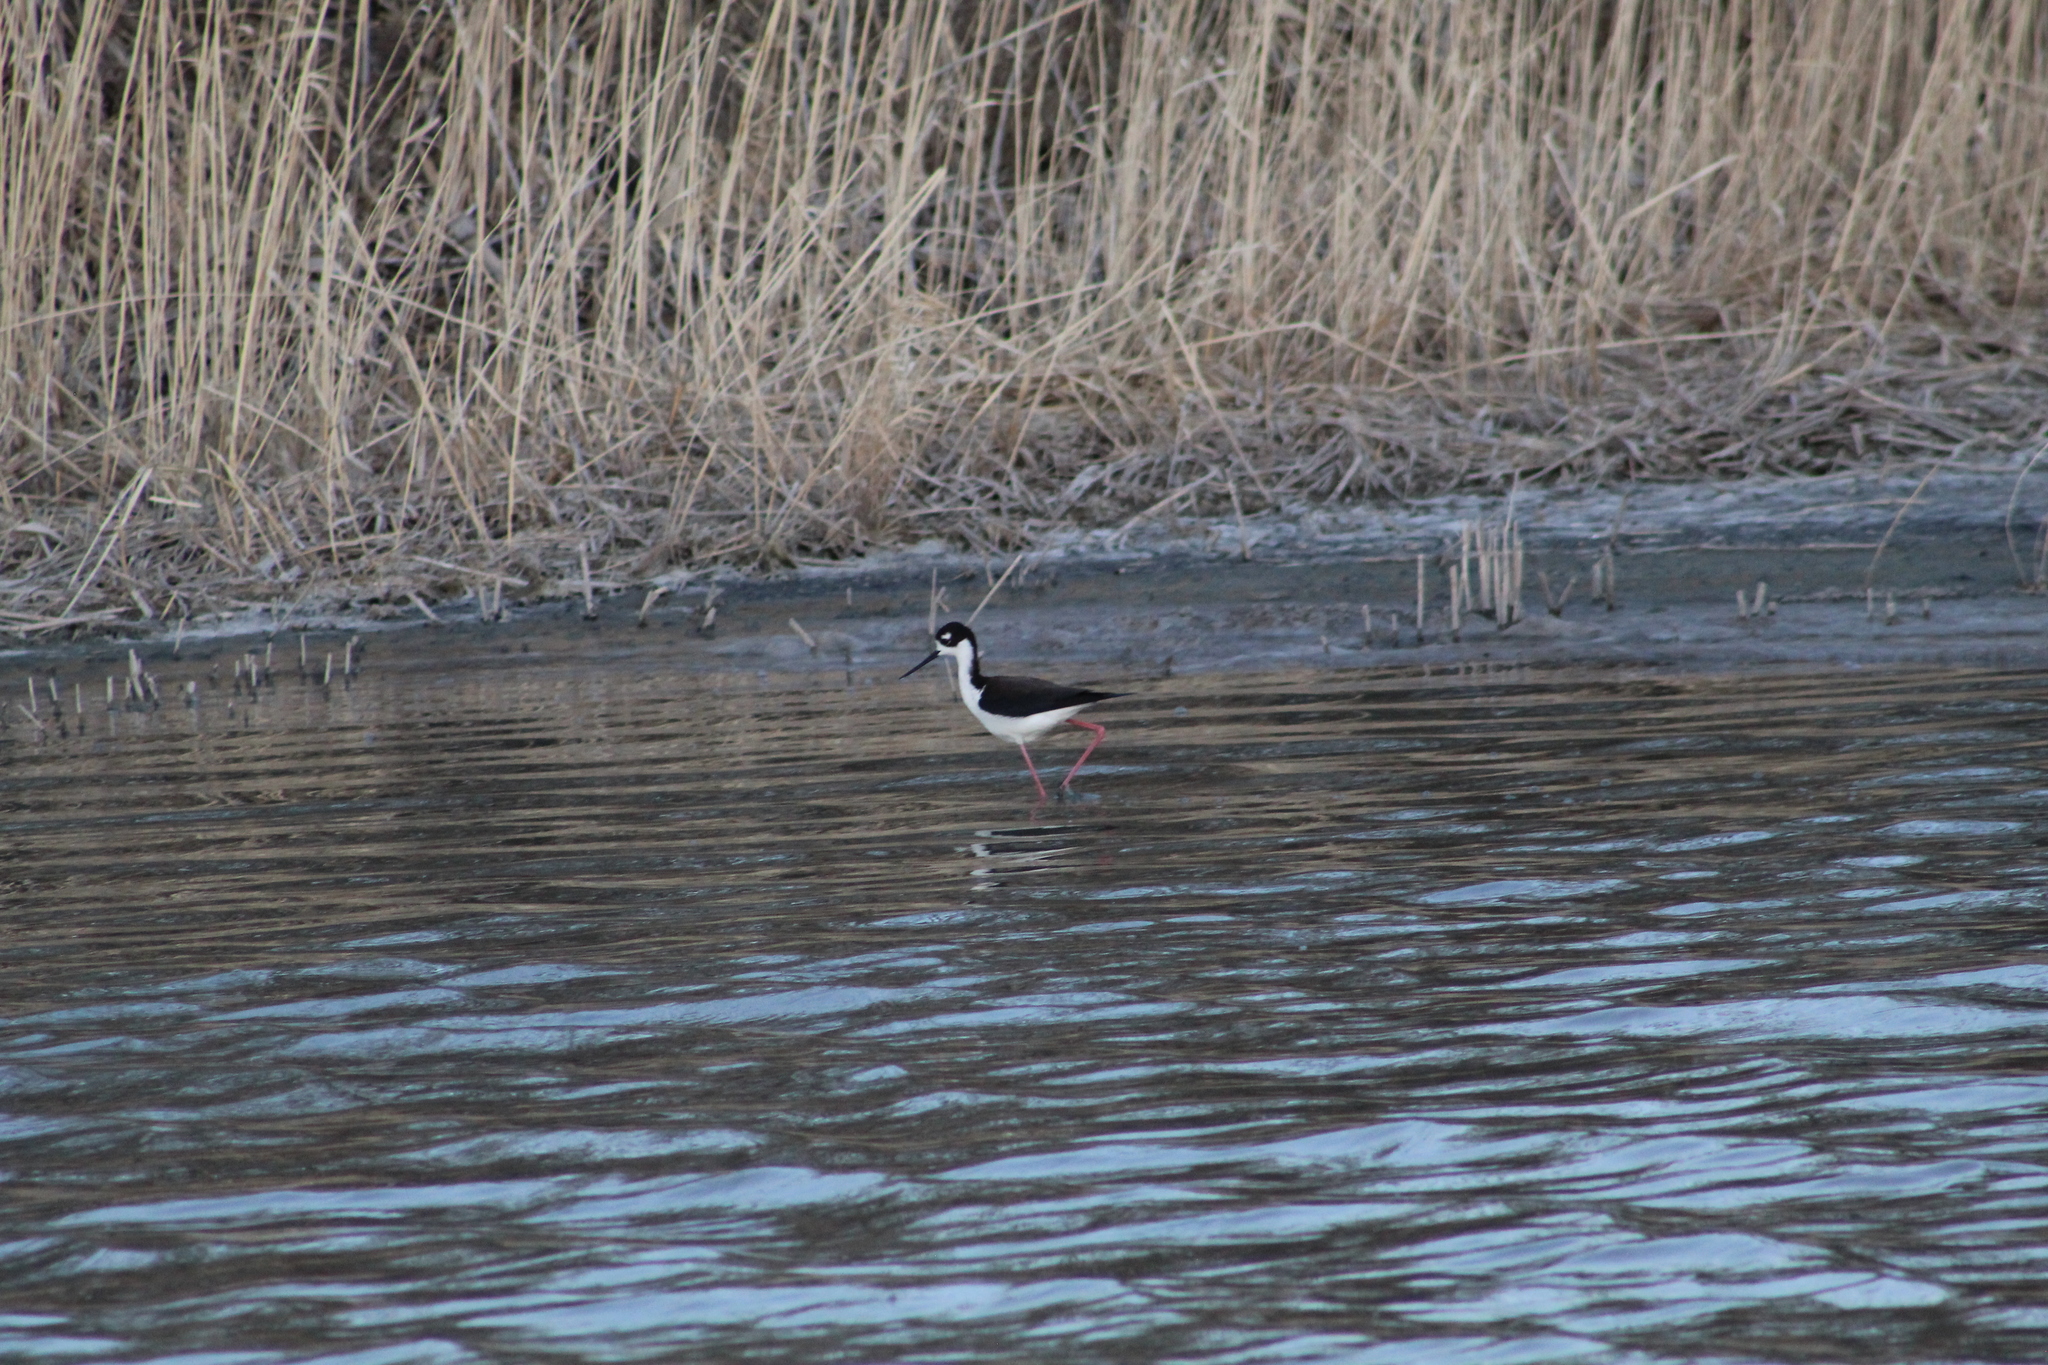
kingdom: Animalia
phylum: Chordata
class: Aves
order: Charadriiformes
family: Recurvirostridae
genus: Himantopus
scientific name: Himantopus mexicanus
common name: Black-necked stilt
